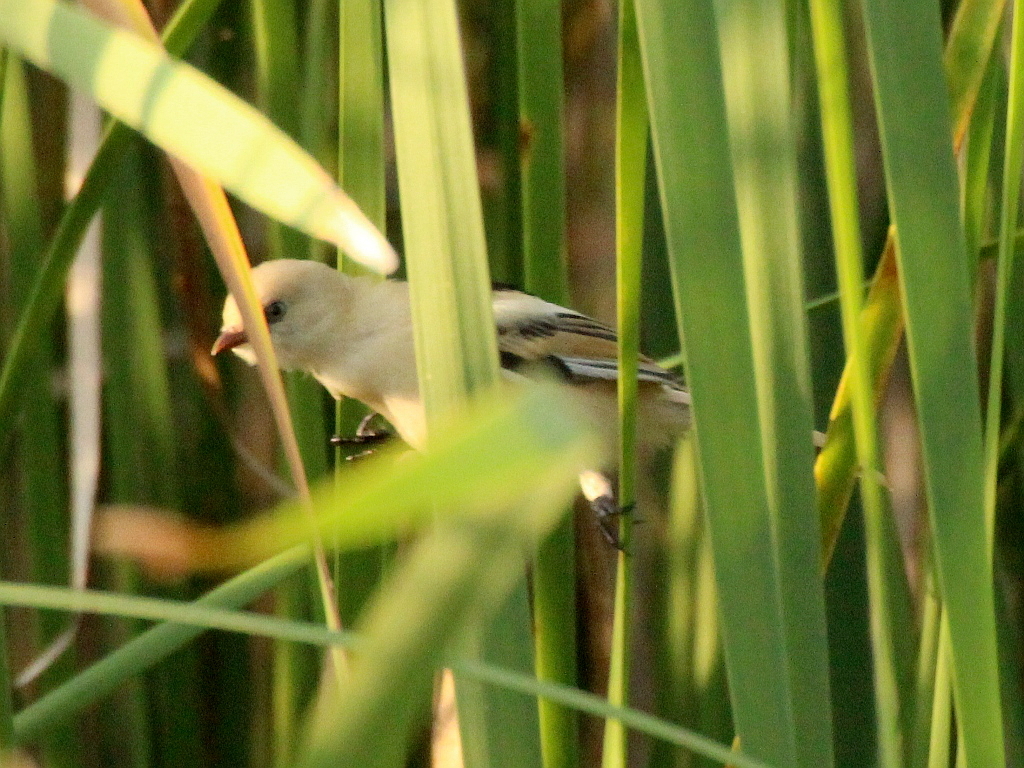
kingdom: Animalia
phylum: Chordata
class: Aves
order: Passeriformes
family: Panuridae
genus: Panurus
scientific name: Panurus biarmicus
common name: Bearded reedling
